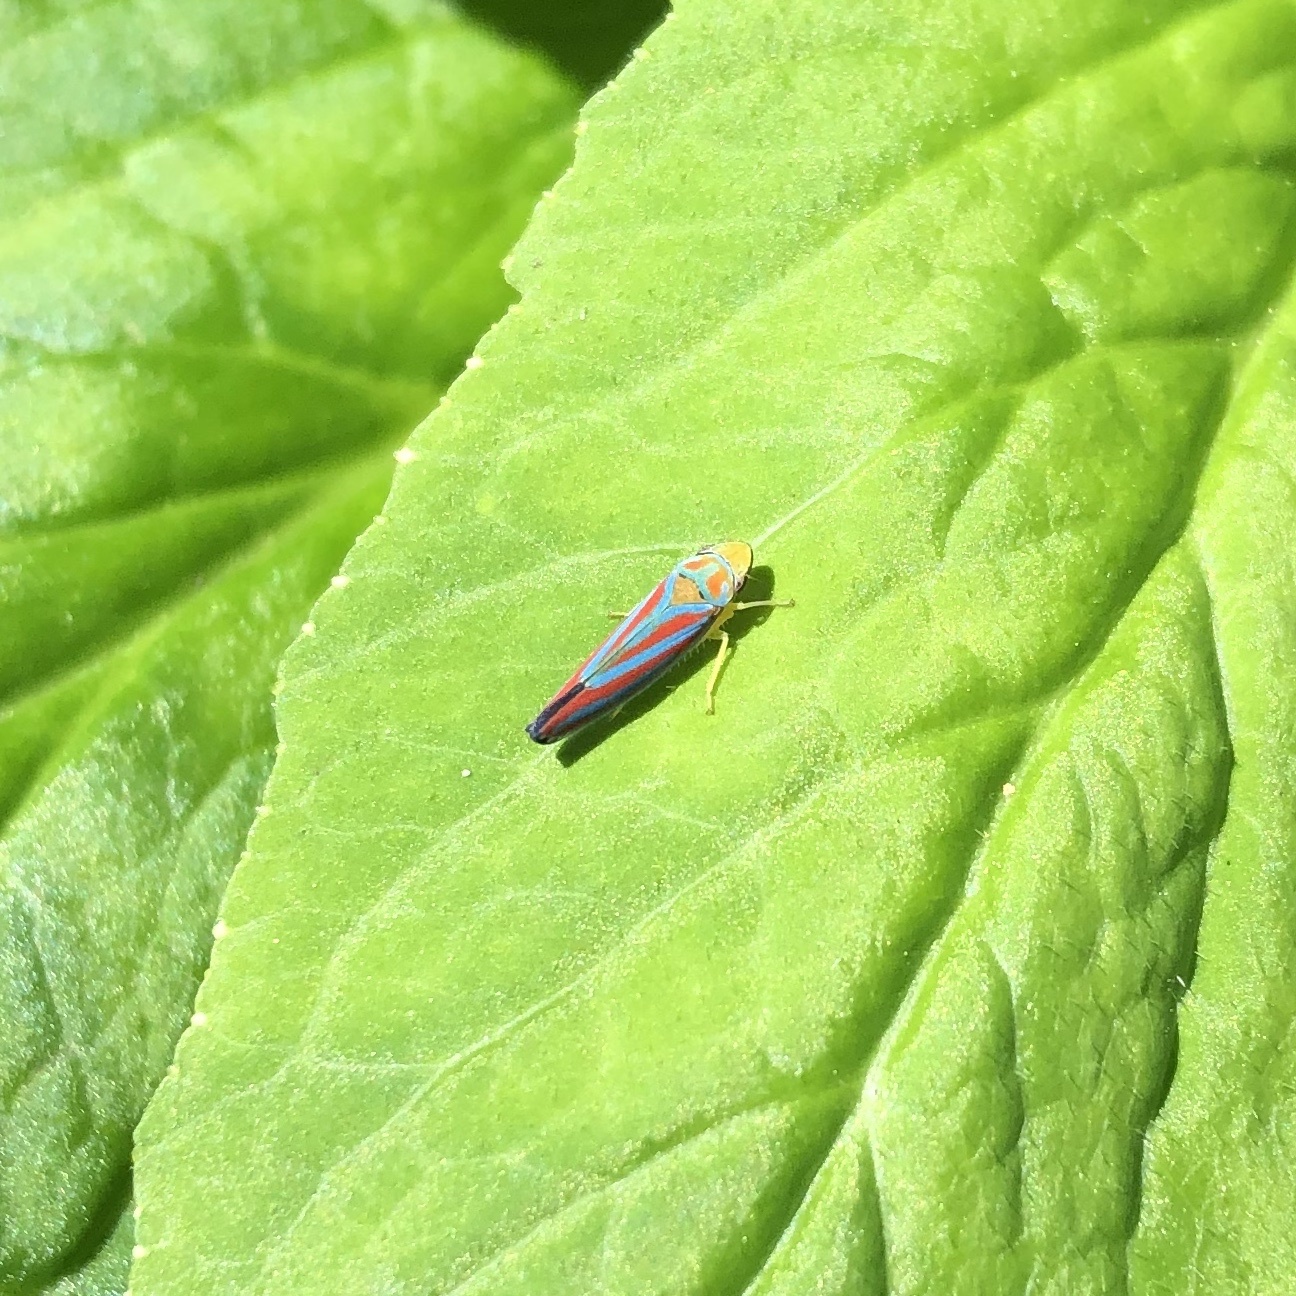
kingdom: Animalia
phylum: Arthropoda
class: Insecta
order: Hemiptera
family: Cicadellidae
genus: Graphocephala
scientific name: Graphocephala coccinea
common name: Candy-striped leafhopper
